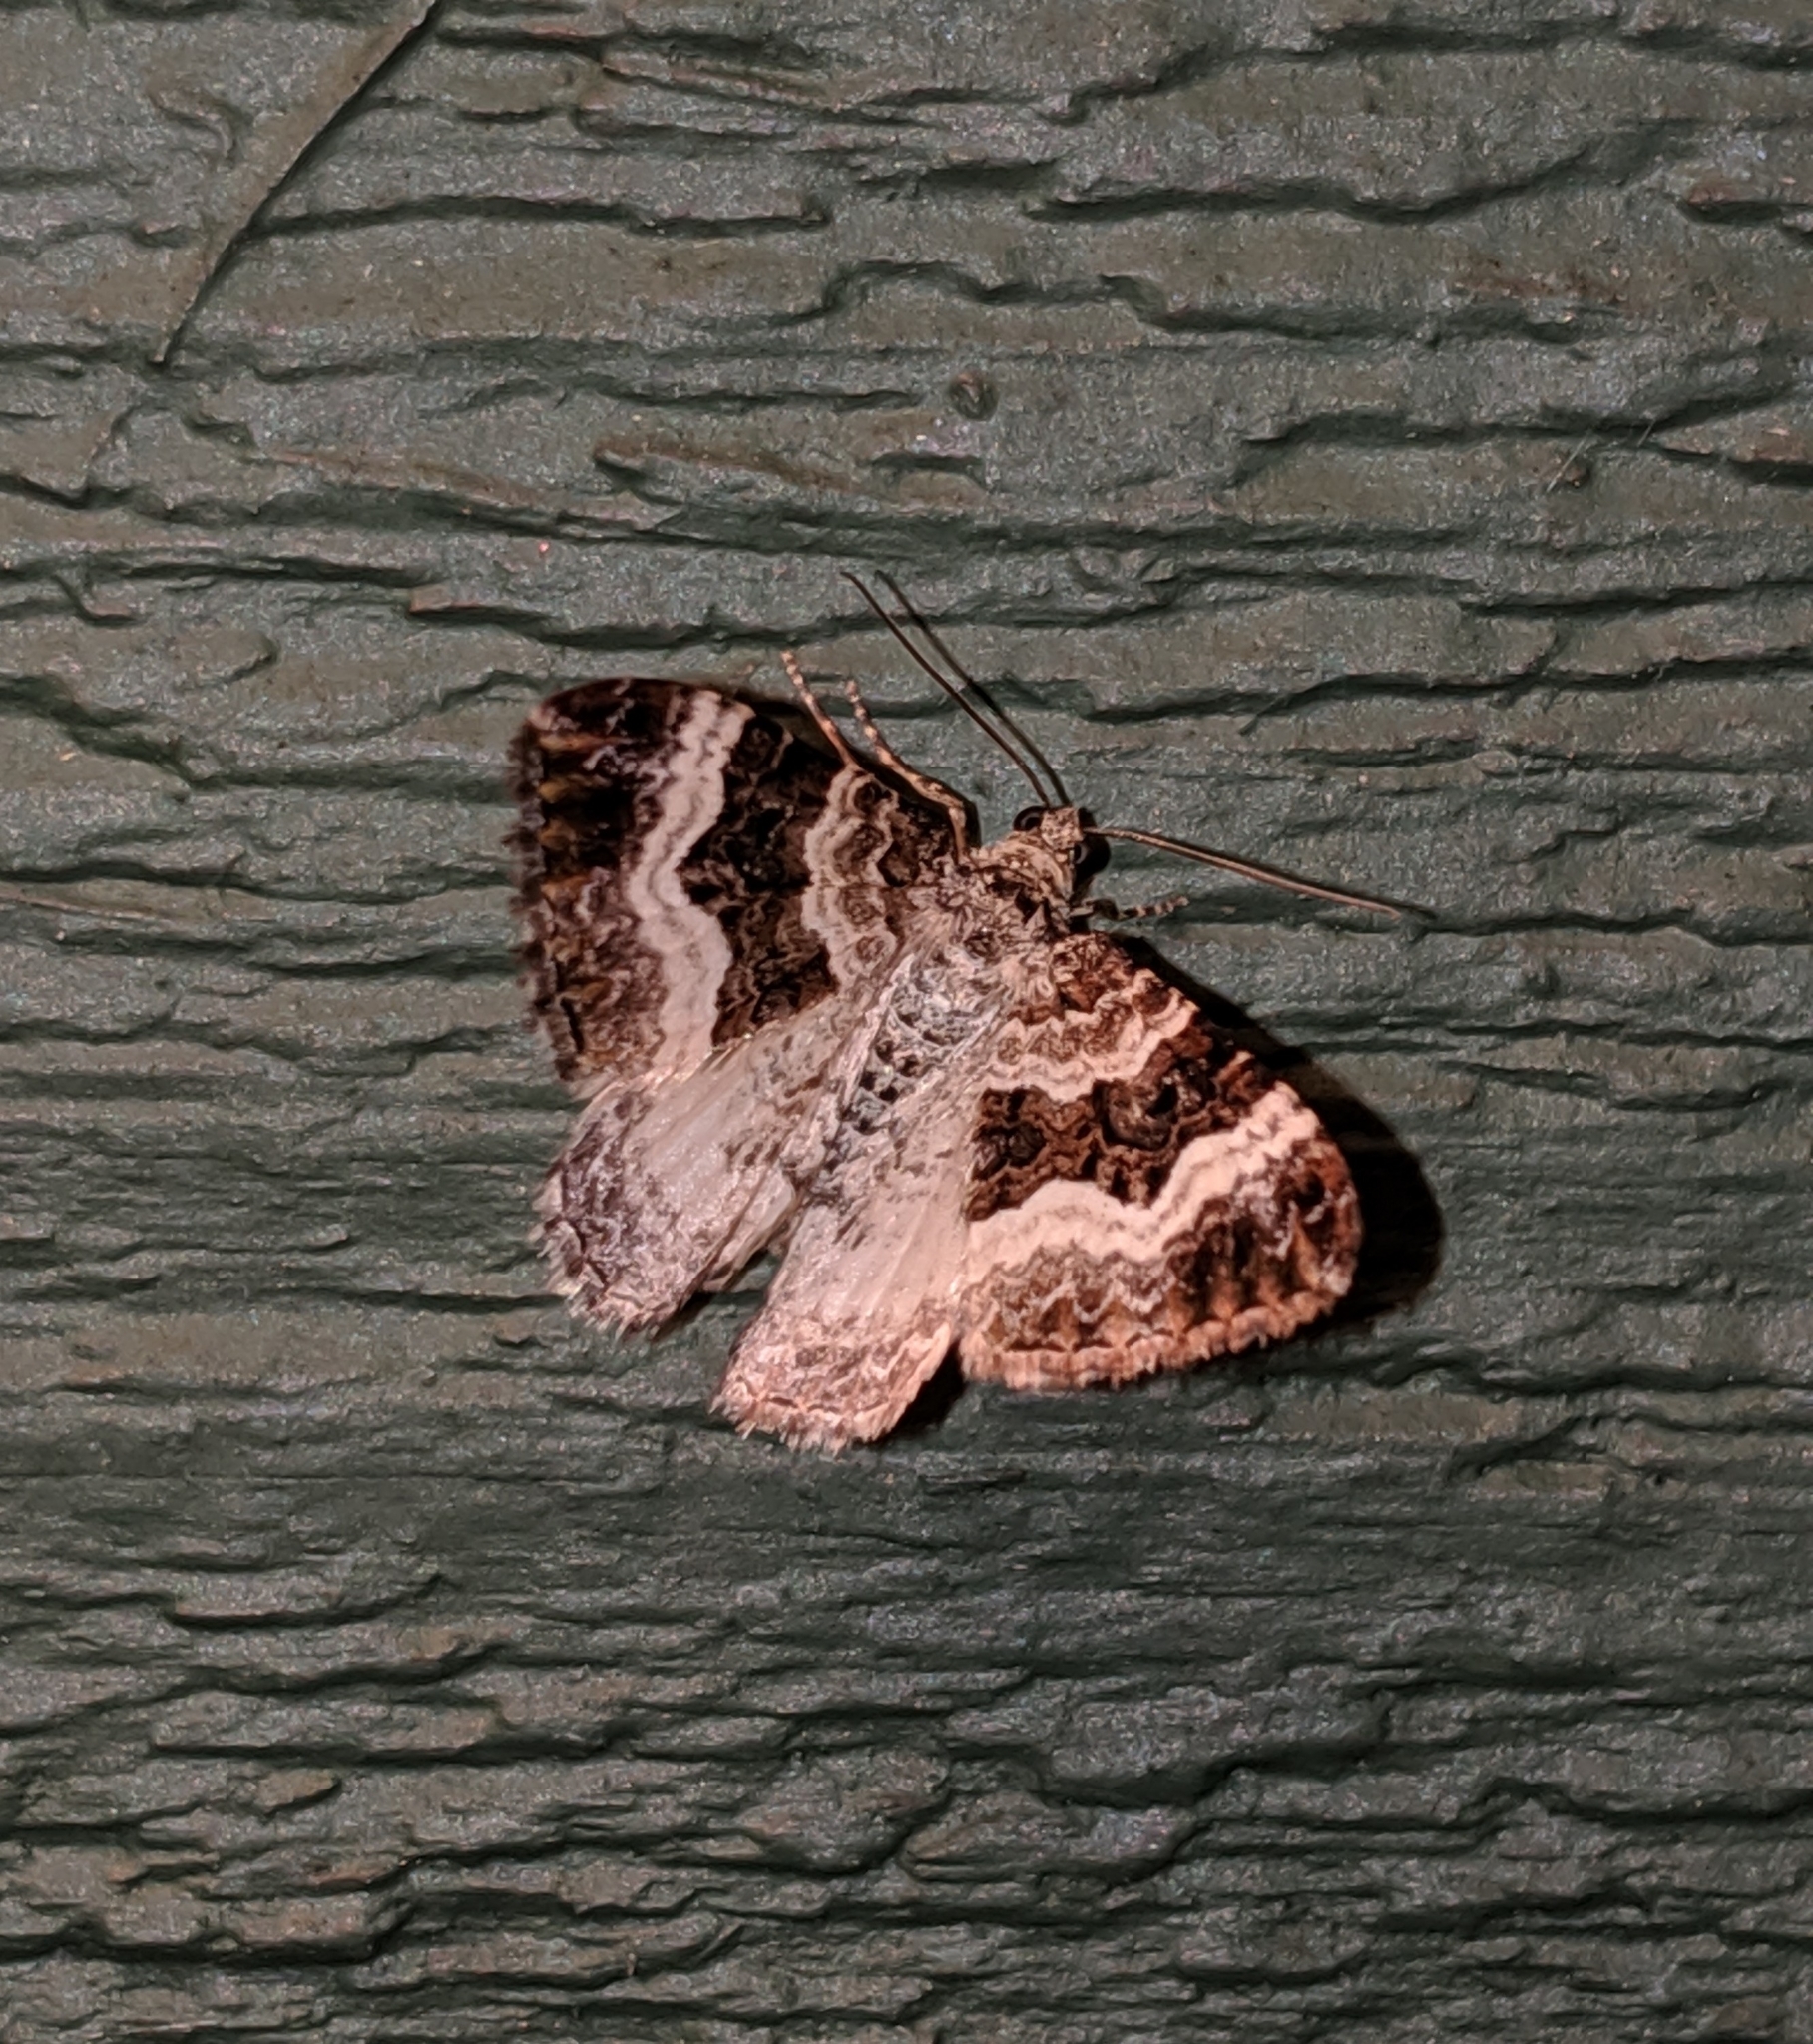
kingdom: Animalia
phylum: Arthropoda
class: Insecta
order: Lepidoptera
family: Geometridae
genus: Epirrhoe
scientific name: Epirrhoe alternata
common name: Common carpet
